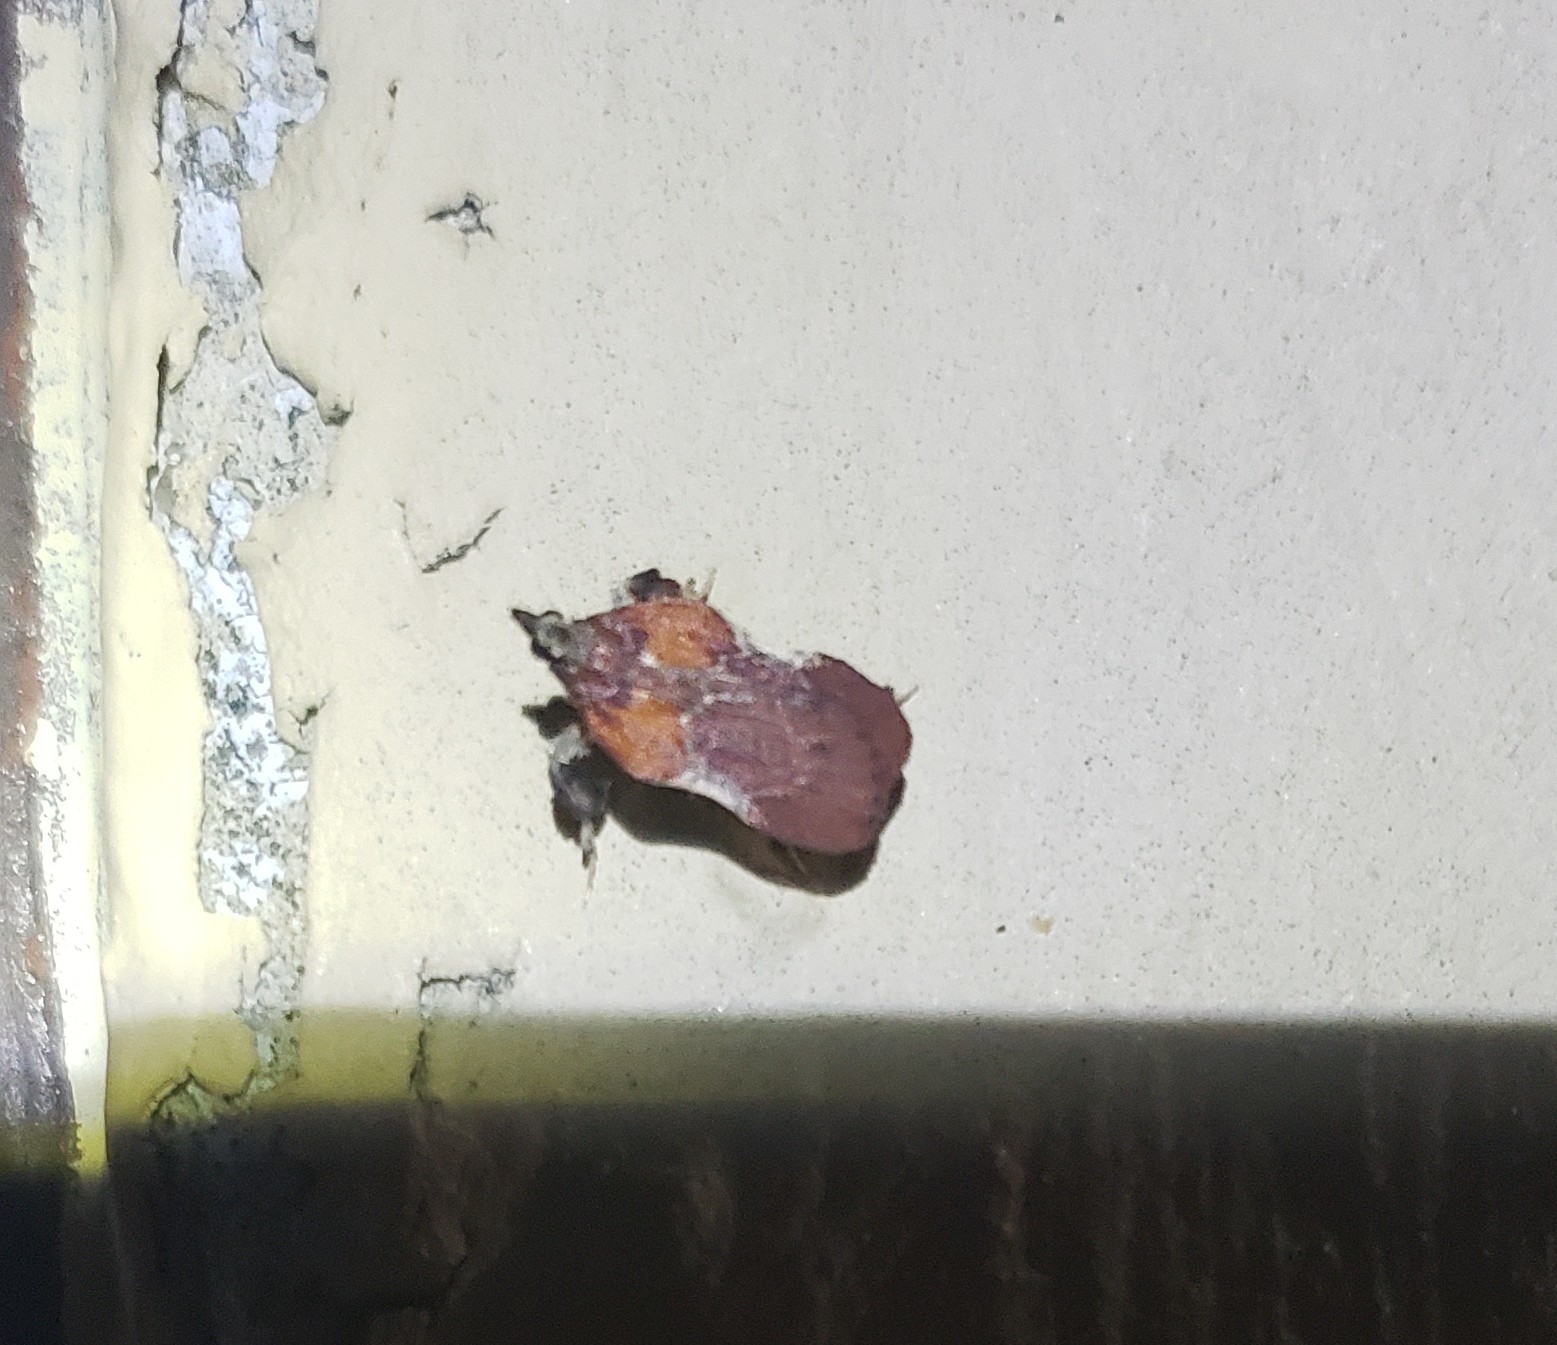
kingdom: Animalia
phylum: Arthropoda
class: Insecta
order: Lepidoptera
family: Pyralidae
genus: Galasa
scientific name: Galasa nigrinodis
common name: Boxwood leaftier moth
